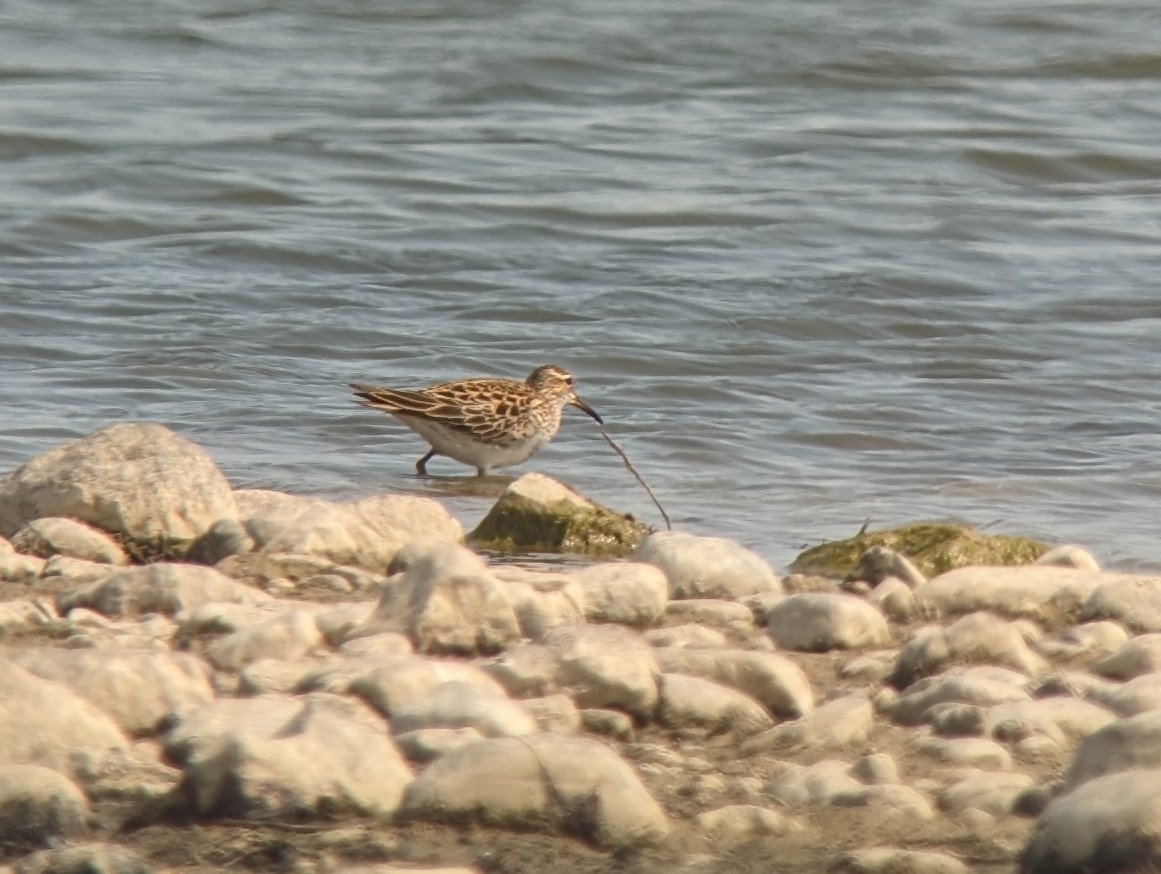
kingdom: Animalia
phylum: Chordata
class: Aves
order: Charadriiformes
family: Scolopacidae
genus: Calidris
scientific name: Calidris melanotos
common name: Pectoral sandpiper
